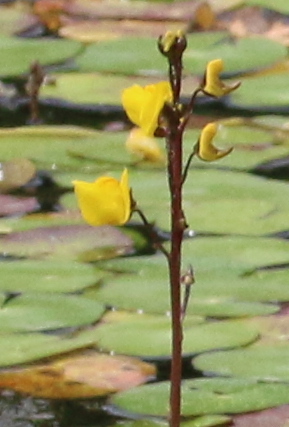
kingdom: Plantae
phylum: Tracheophyta
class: Magnoliopsida
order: Lamiales
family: Lentibulariaceae
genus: Utricularia
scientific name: Utricularia vulgaris
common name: Greater bladderwort
